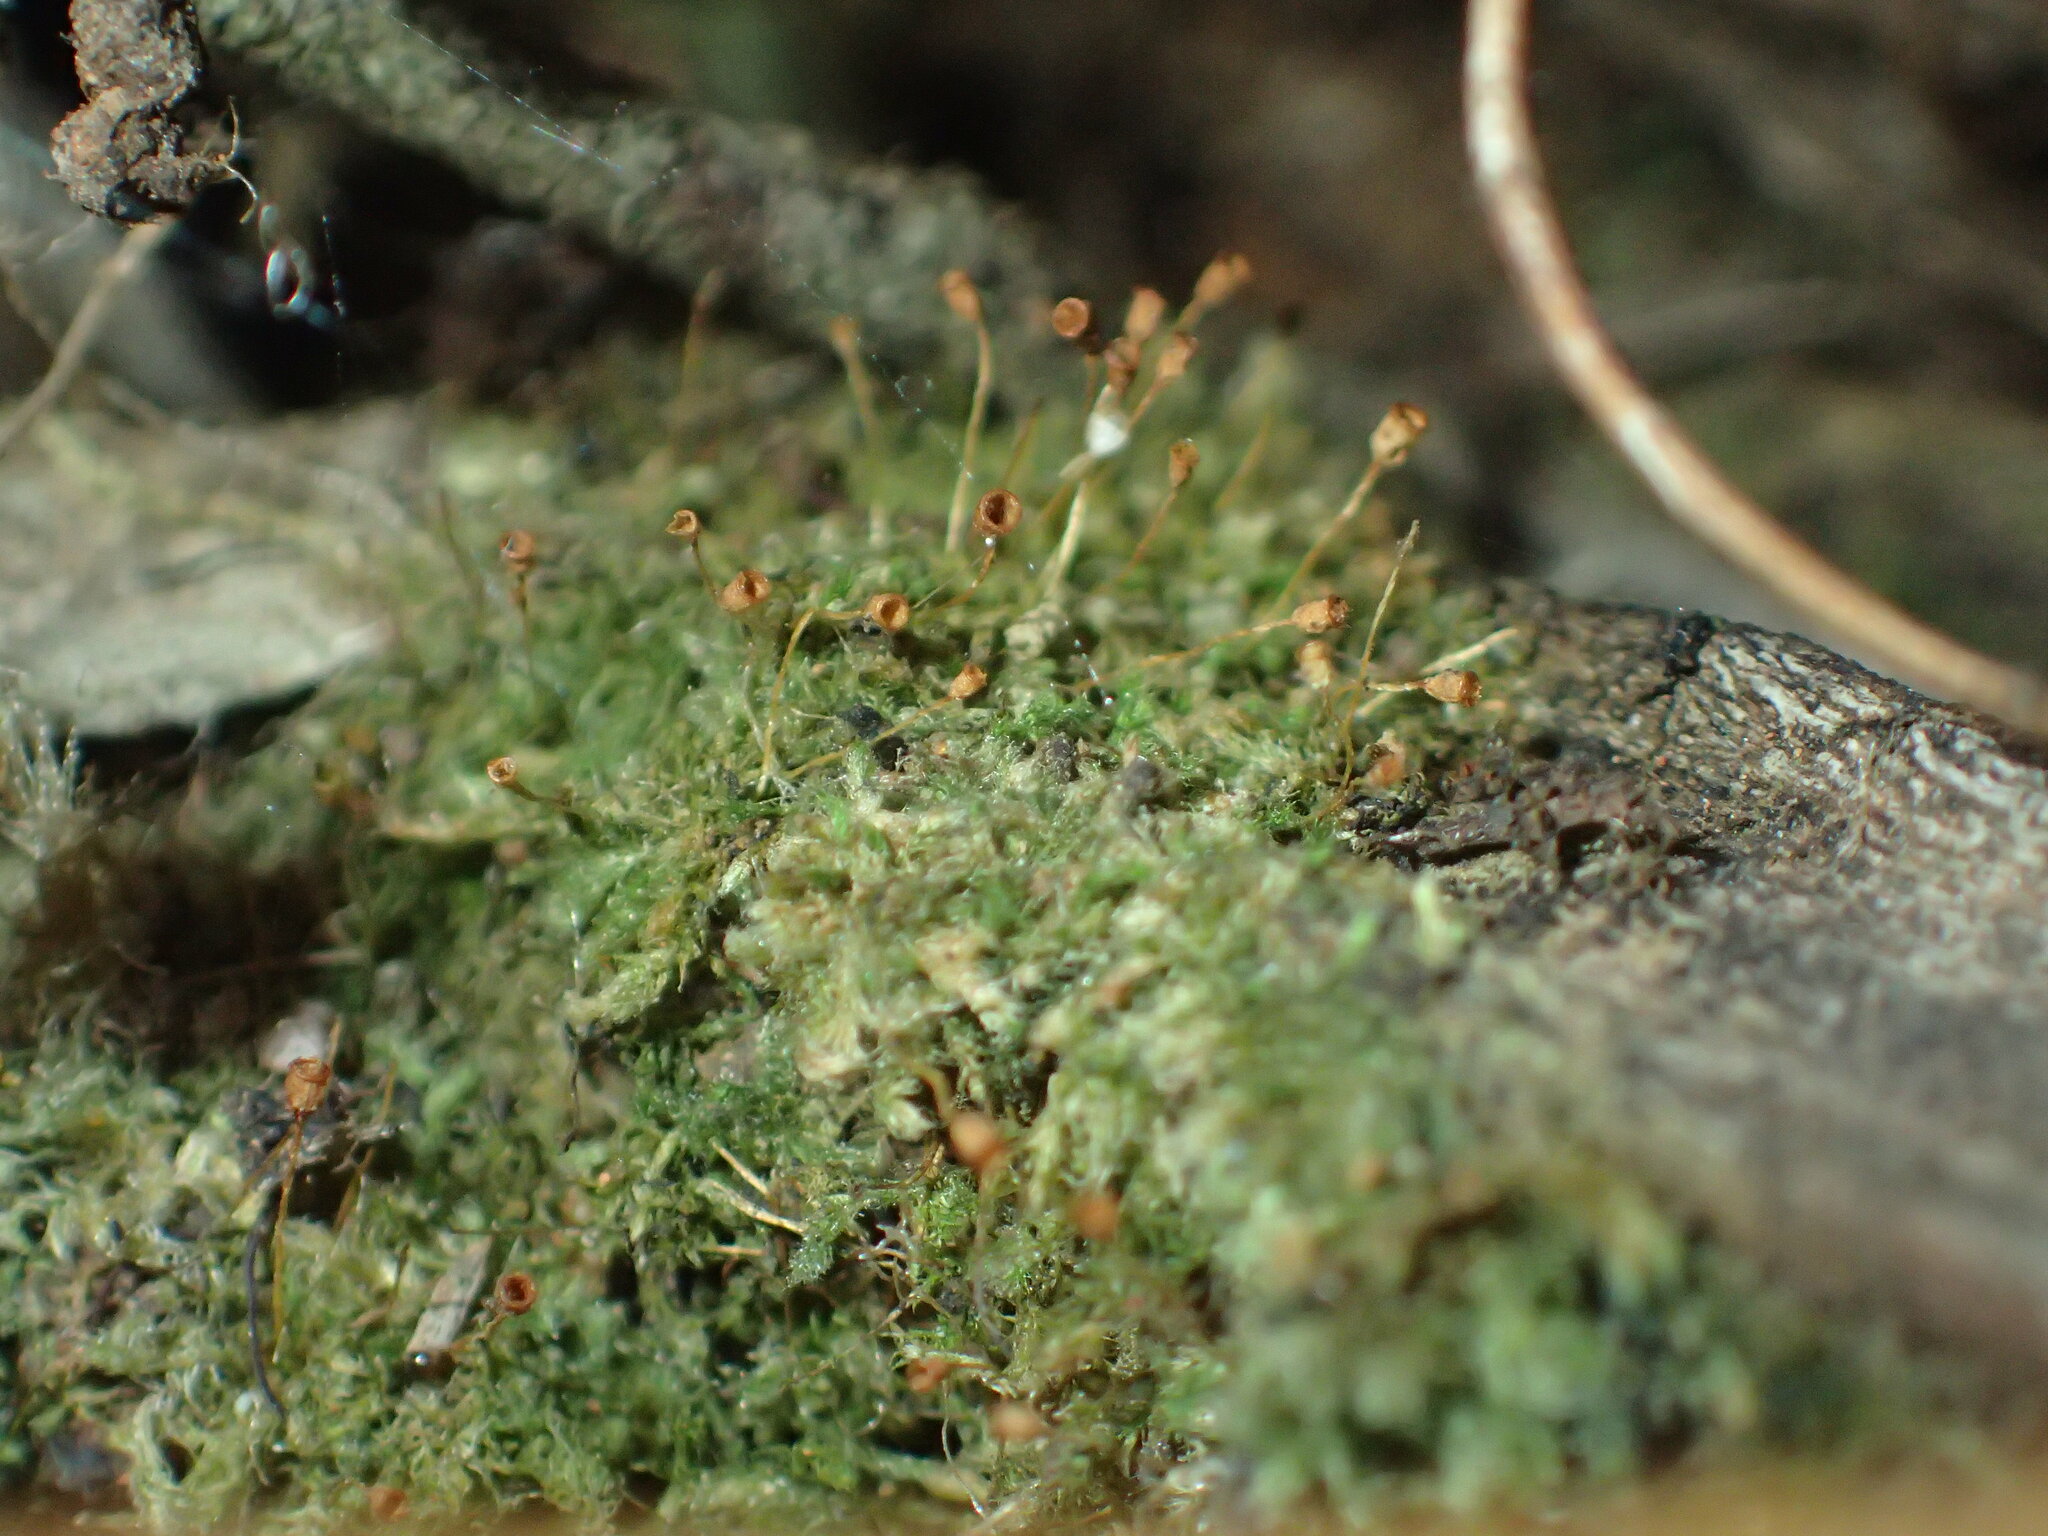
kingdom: Plantae
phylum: Bryophyta
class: Bryopsida
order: Hypnales
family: Fabroniaceae
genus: Fabronia
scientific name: Fabronia hampeana
